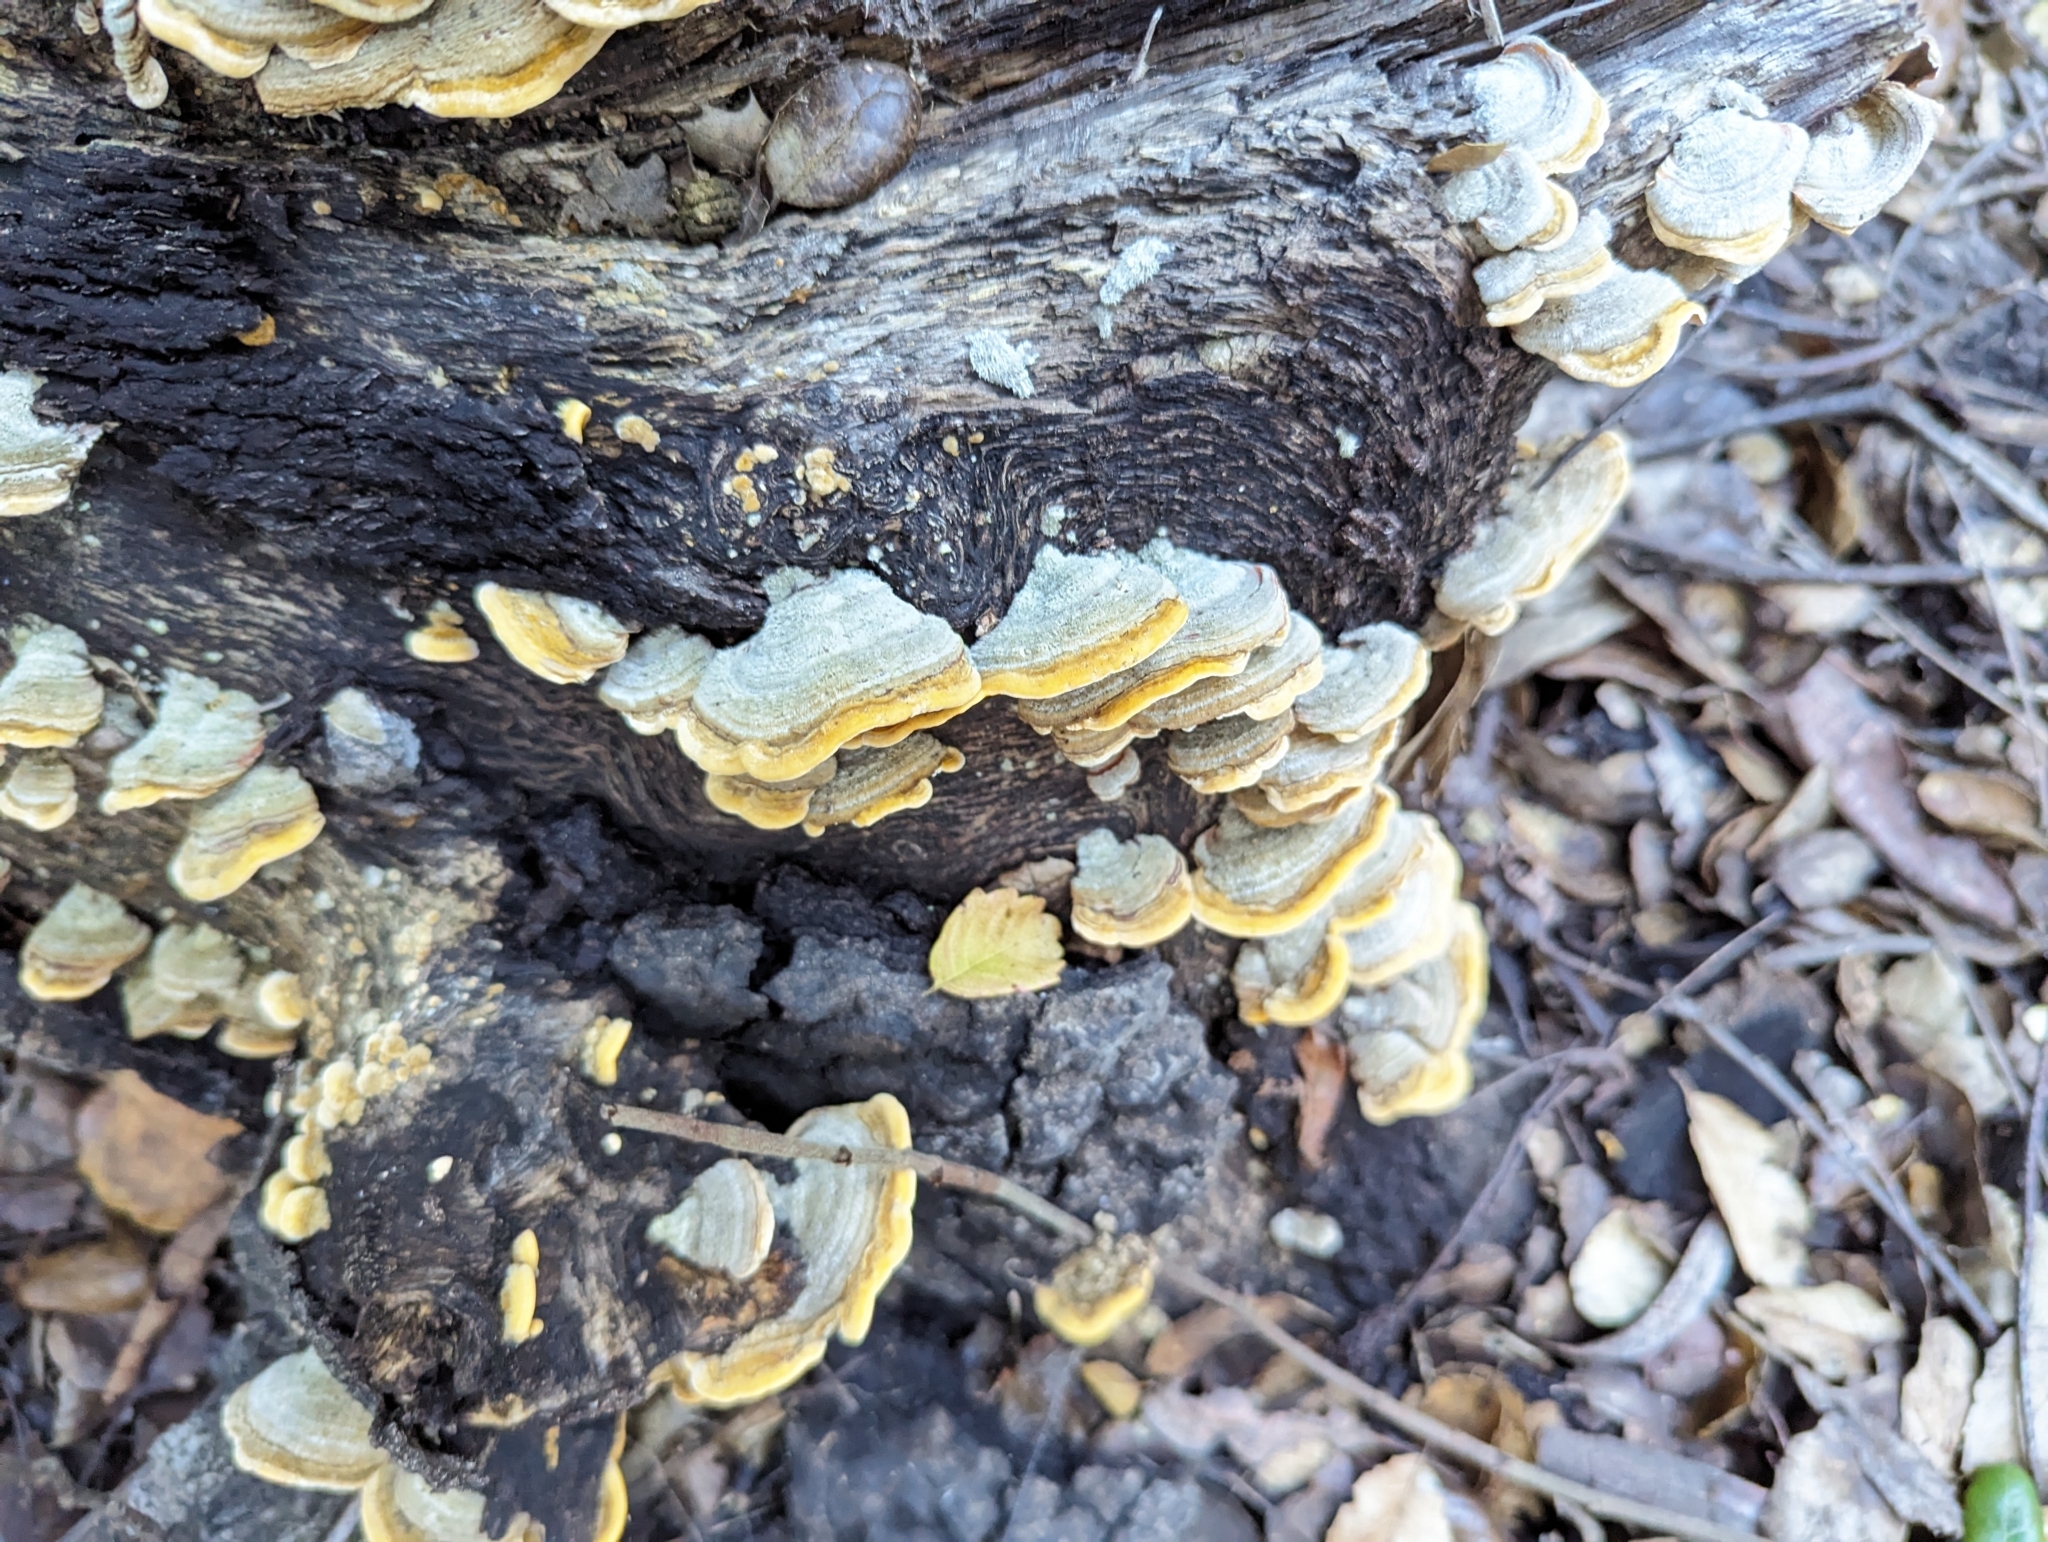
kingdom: Fungi
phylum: Basidiomycota
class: Agaricomycetes
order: Russulales
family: Stereaceae
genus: Stereum
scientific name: Stereum hirsutum
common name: Hairy curtain crust
